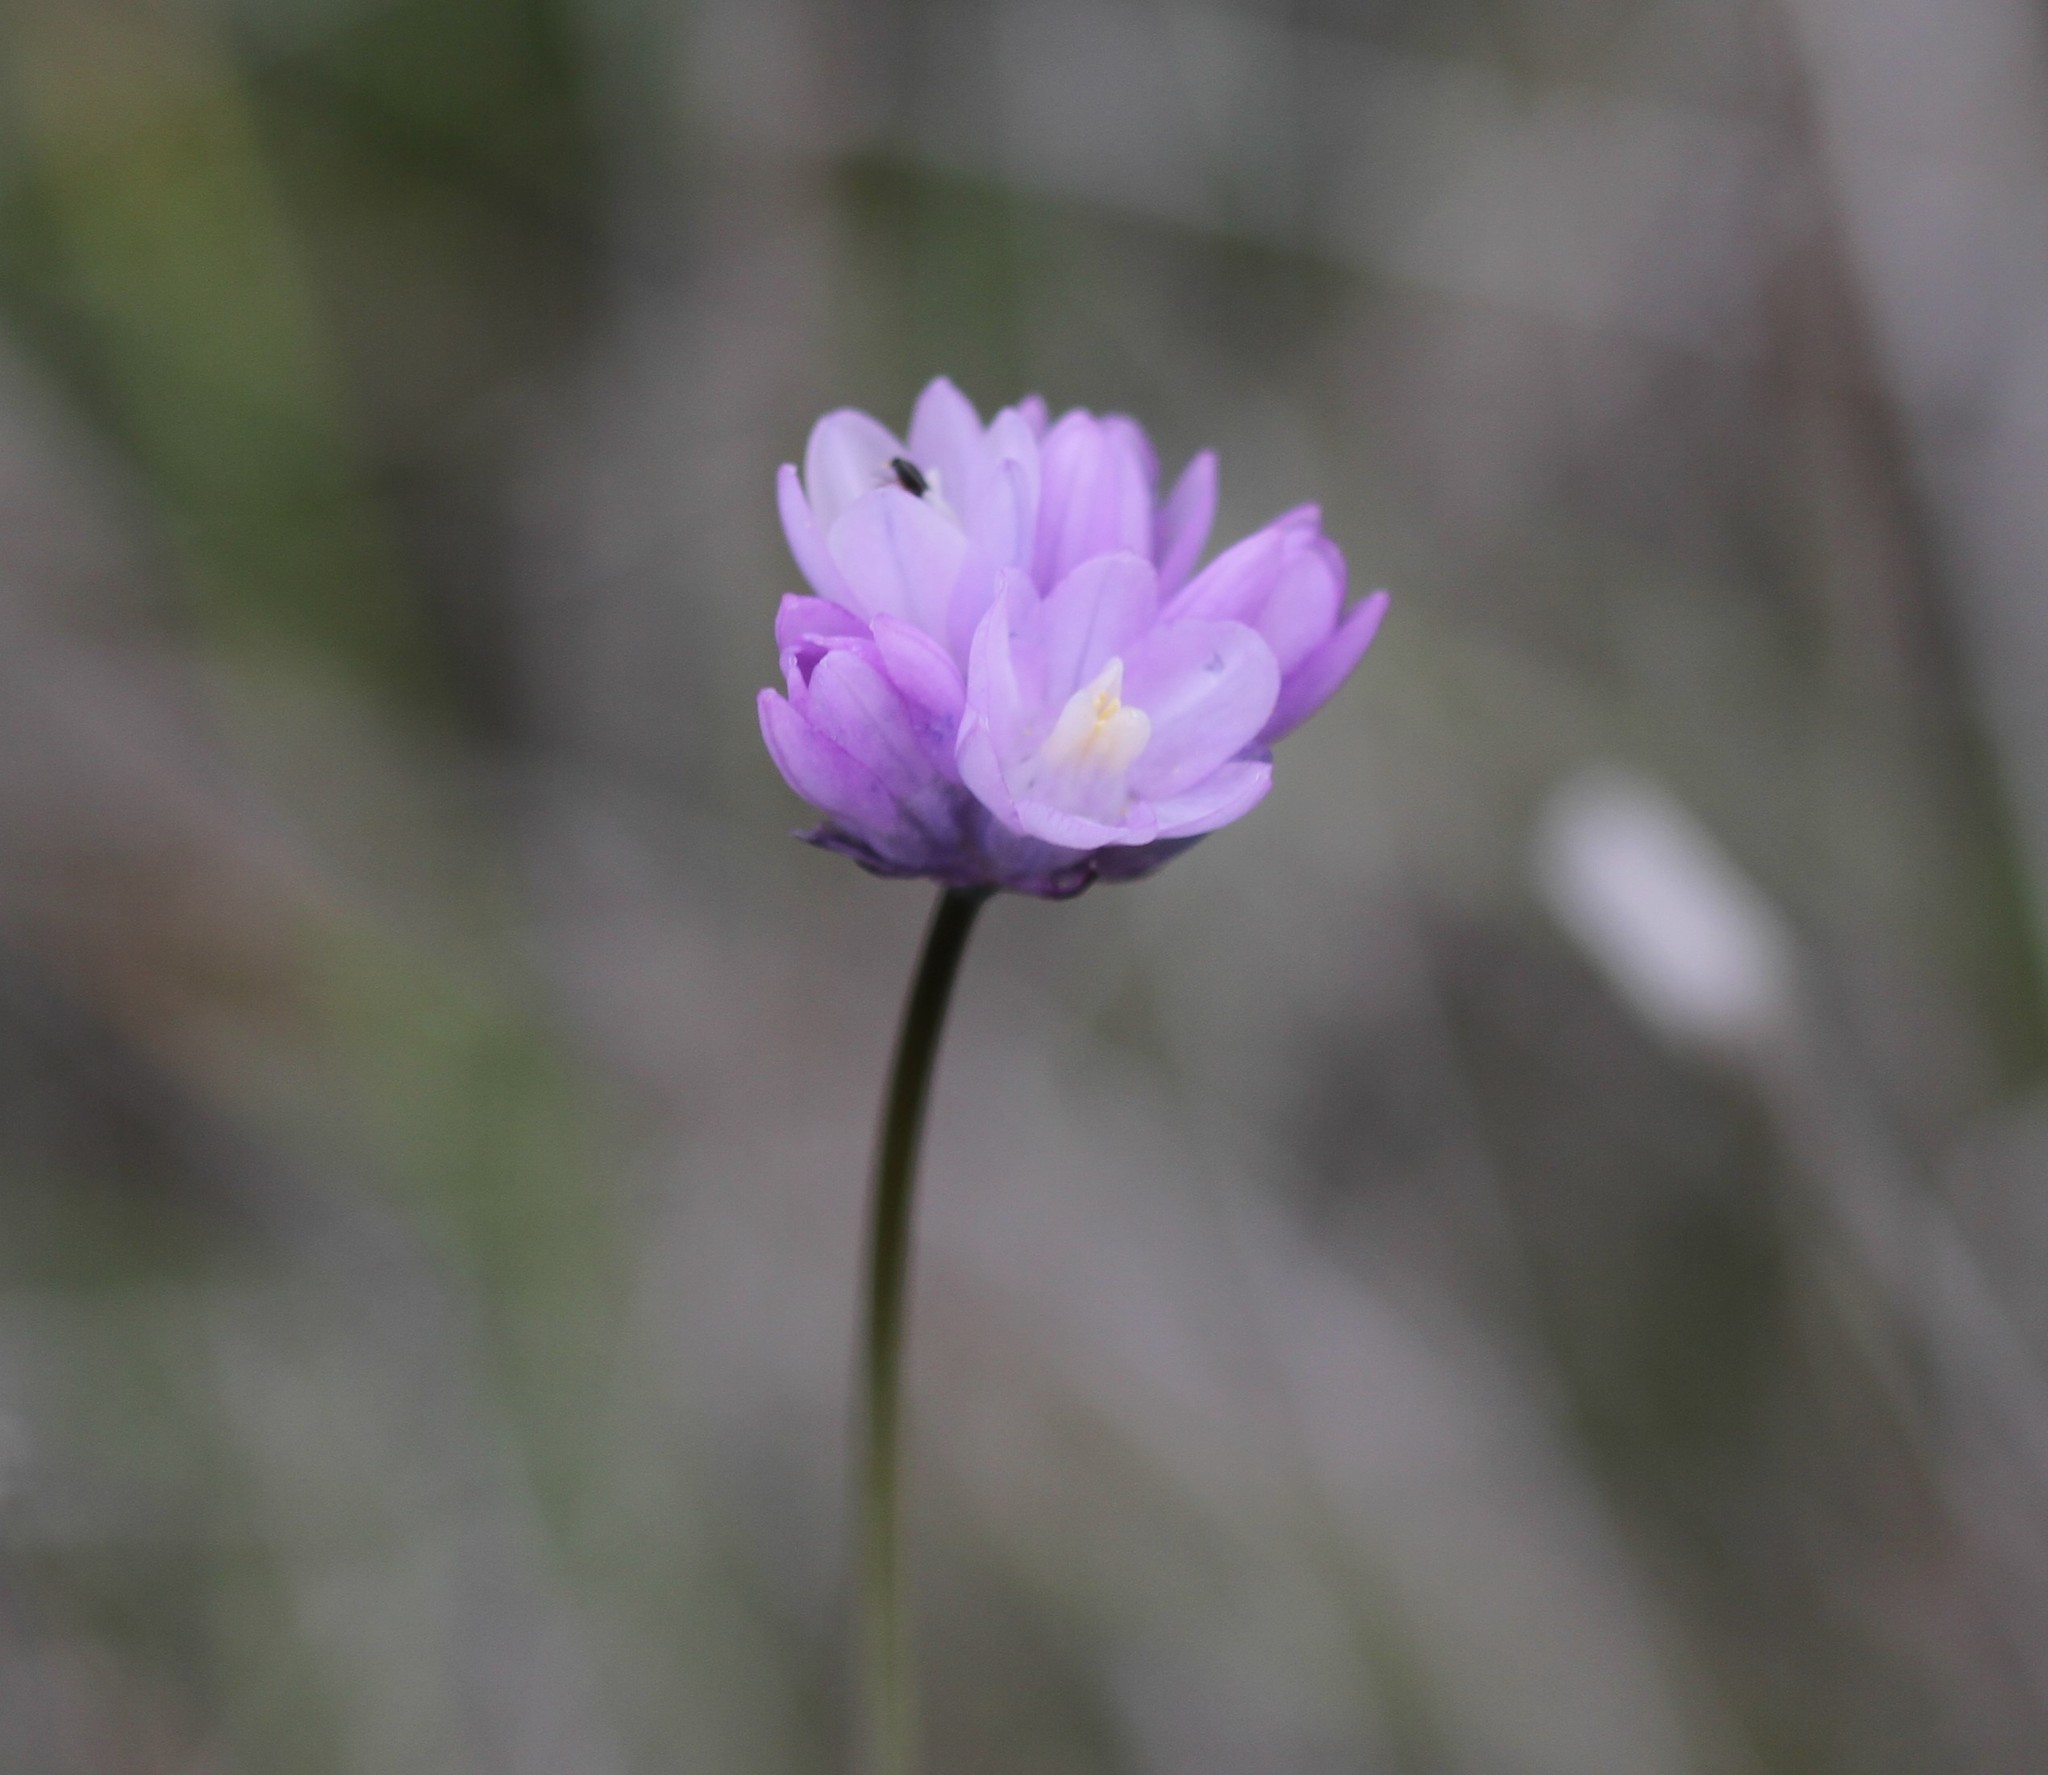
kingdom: Plantae
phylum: Tracheophyta
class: Liliopsida
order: Asparagales
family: Asparagaceae
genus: Dipterostemon
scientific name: Dipterostemon capitatus
